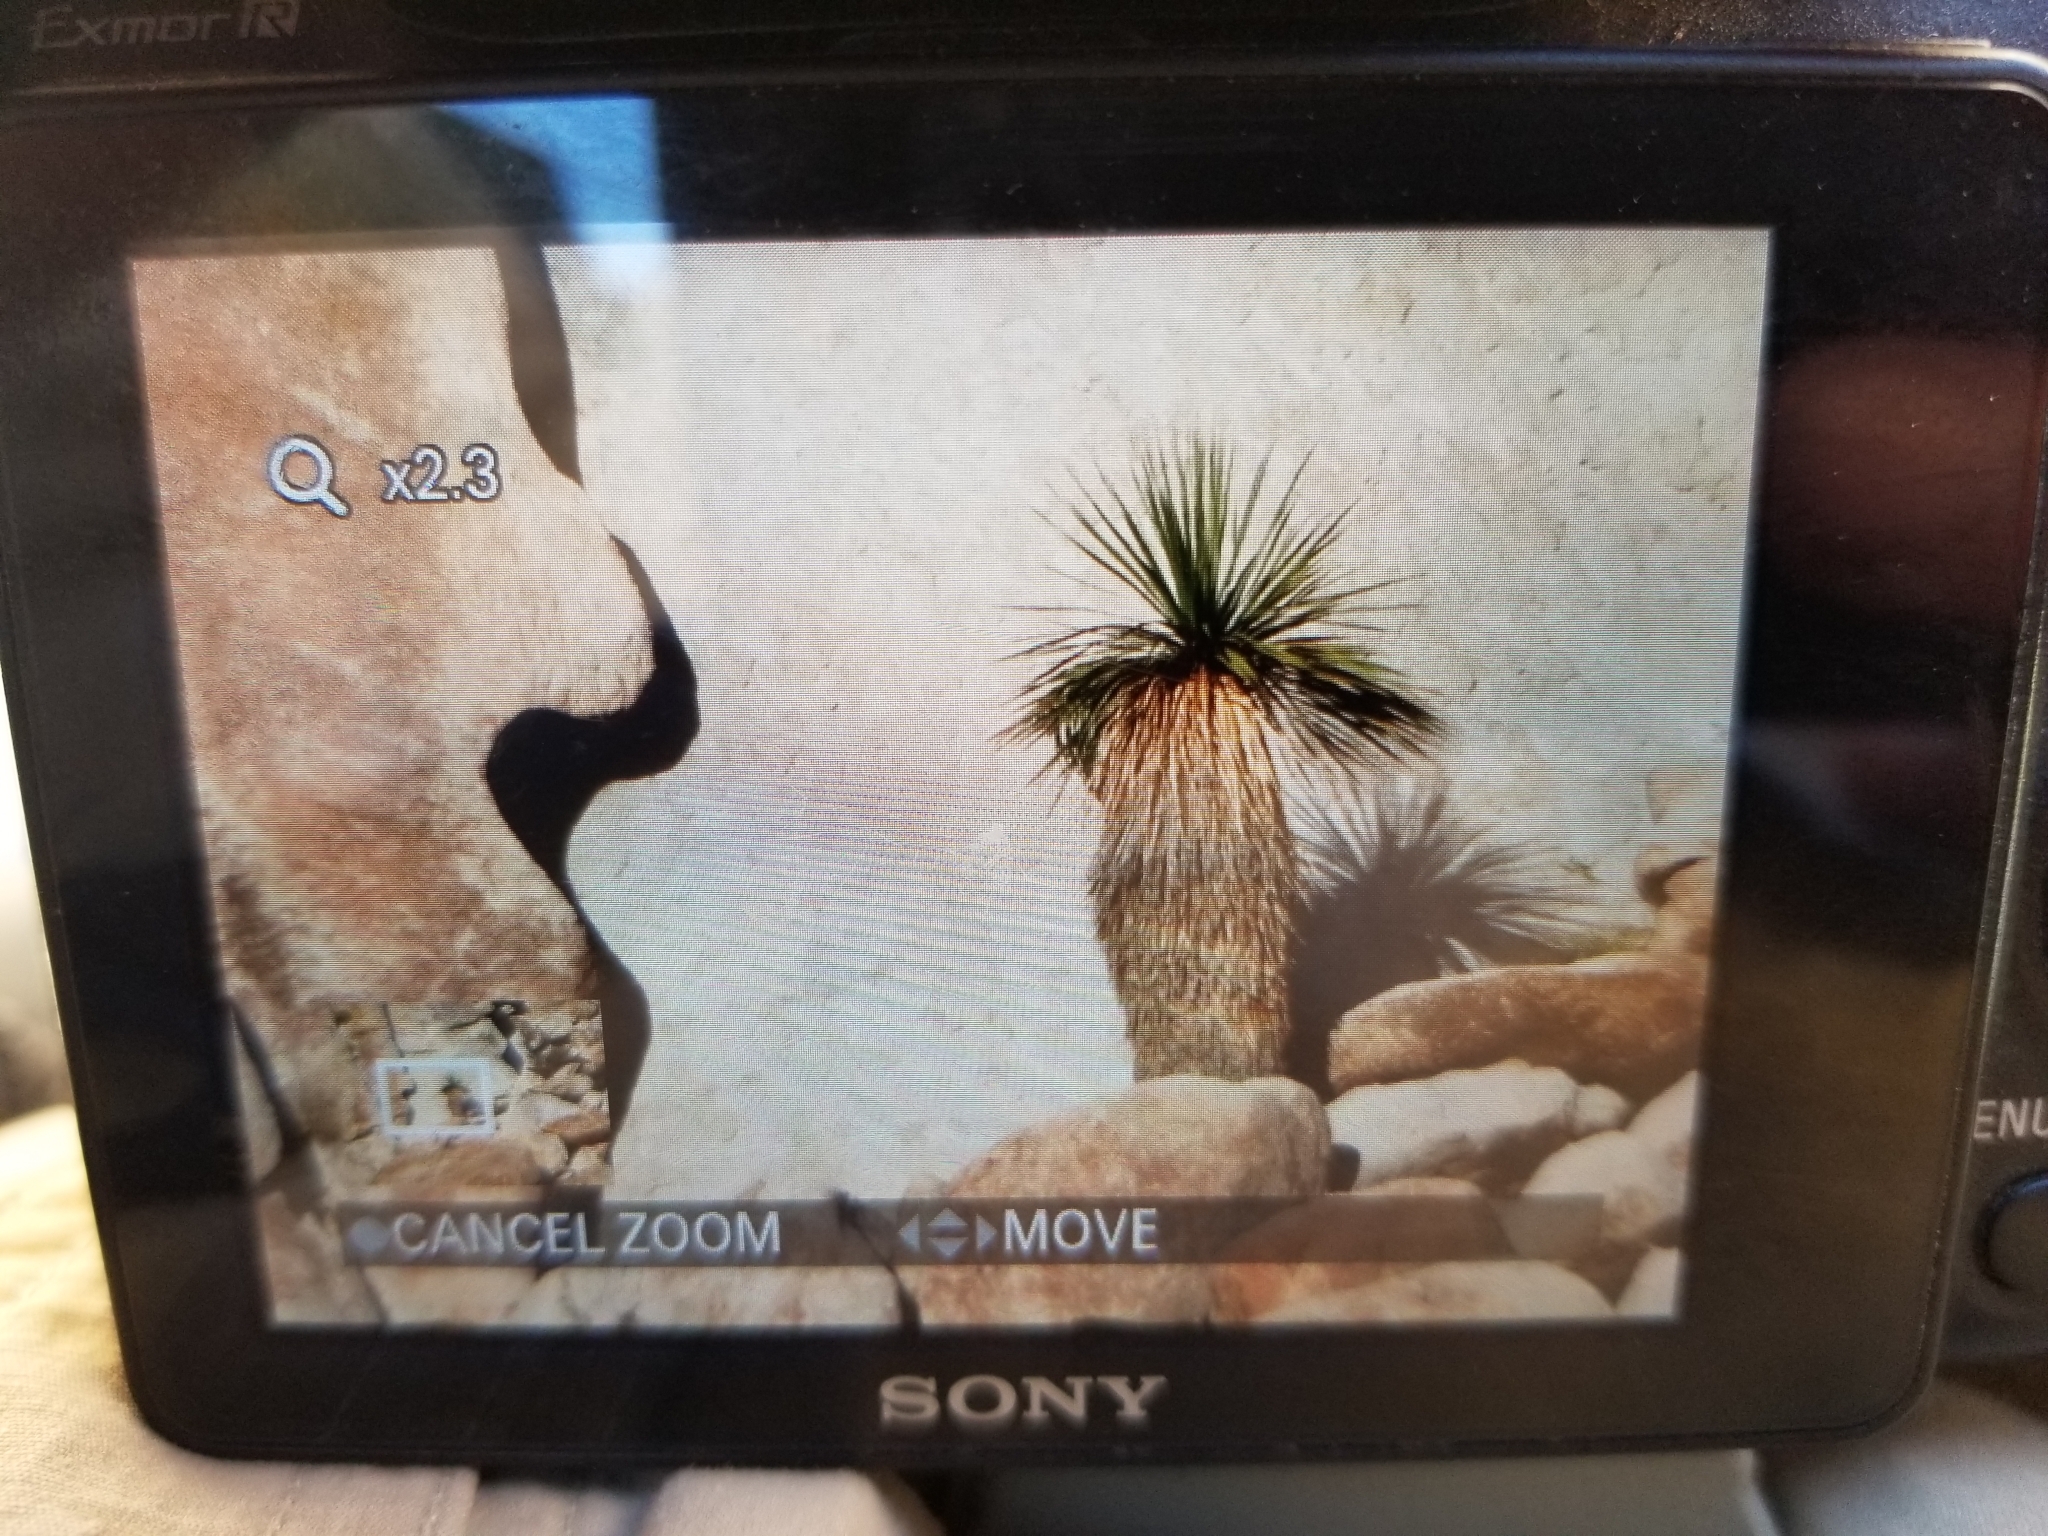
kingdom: Plantae
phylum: Tracheophyta
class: Liliopsida
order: Asparagales
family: Asparagaceae
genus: Nolina
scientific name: Nolina bigelovii
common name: Bigelow bear-grass
